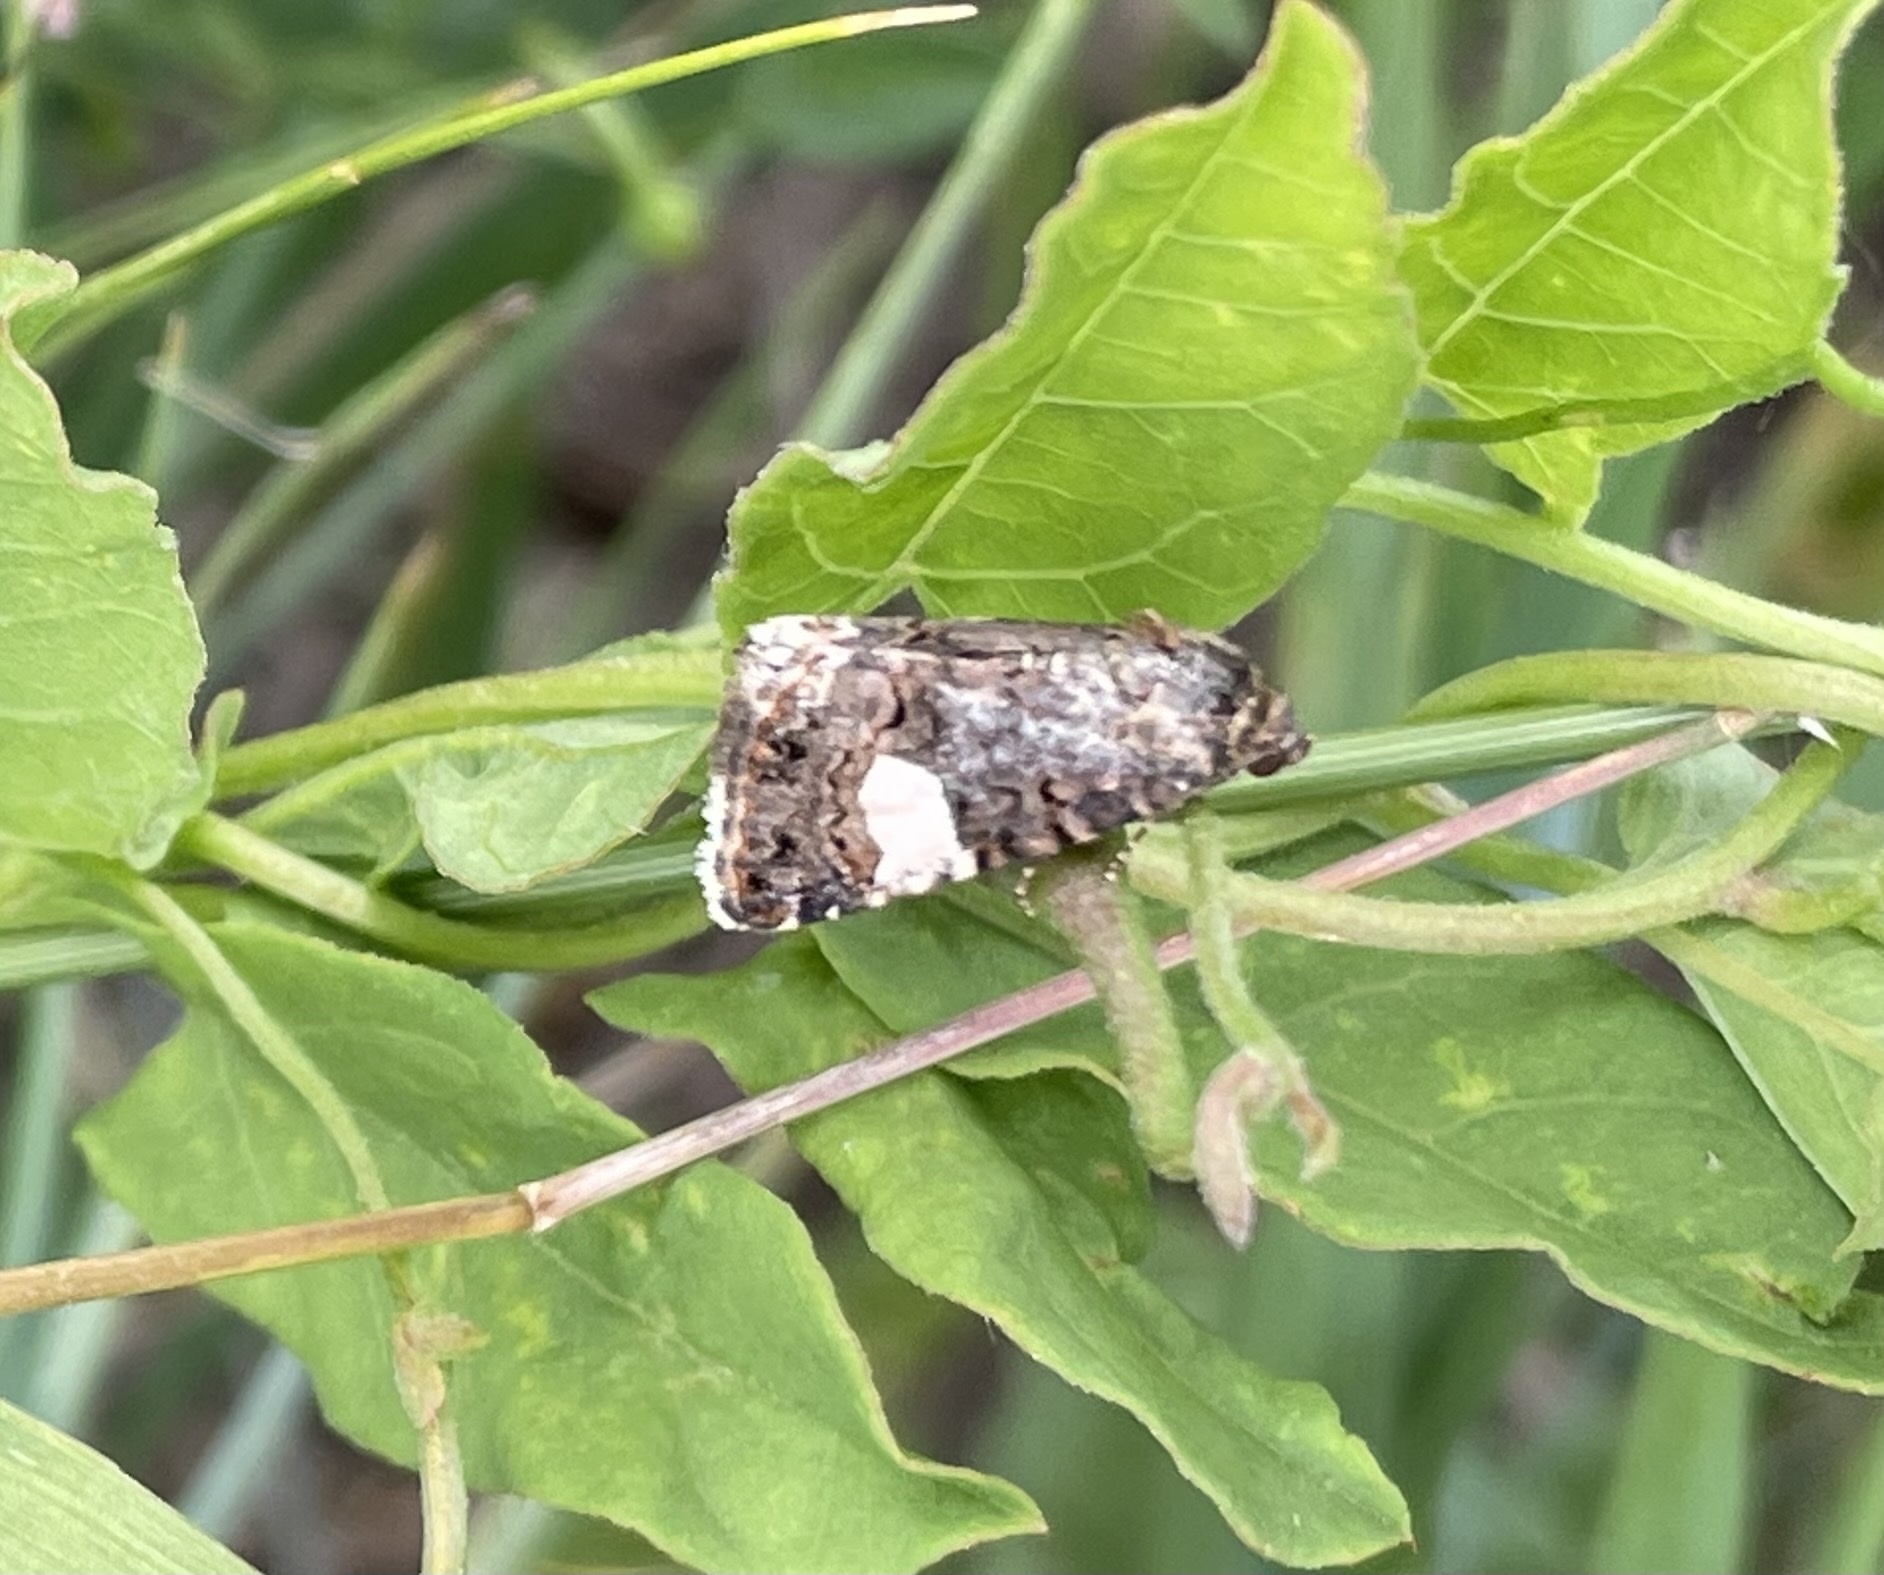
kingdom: Animalia
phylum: Arthropoda
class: Insecta
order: Lepidoptera
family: Erebidae
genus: Tyta
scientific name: Tyta luctuosa
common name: Four-spotted
